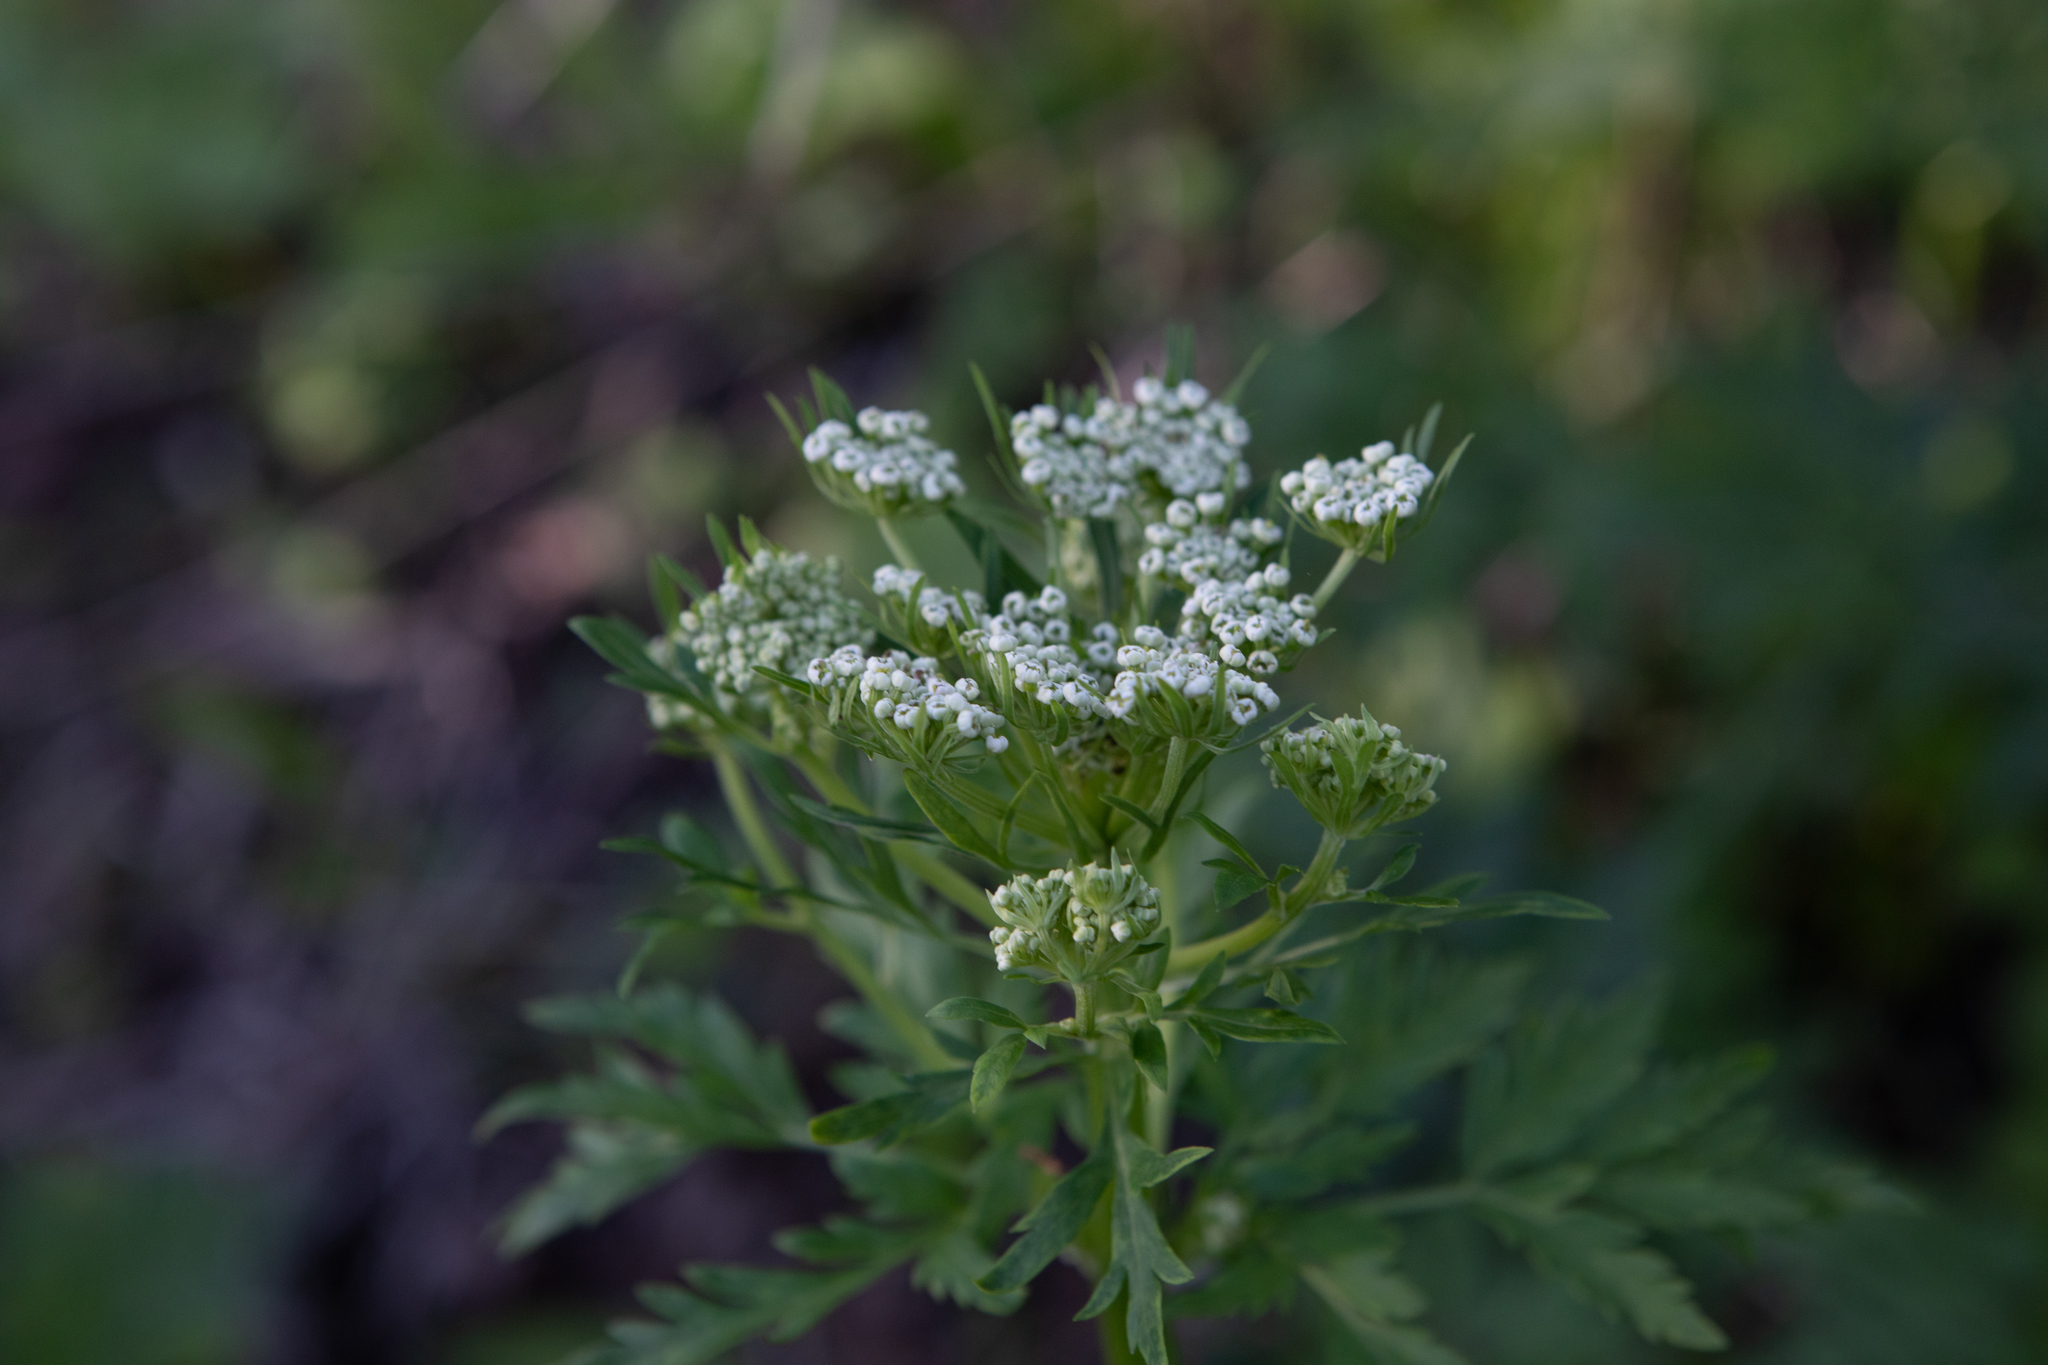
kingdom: Plantae
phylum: Tracheophyta
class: Magnoliopsida
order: Apiales
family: Apiaceae
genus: Pleurospermum
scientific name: Pleurospermum uralense
